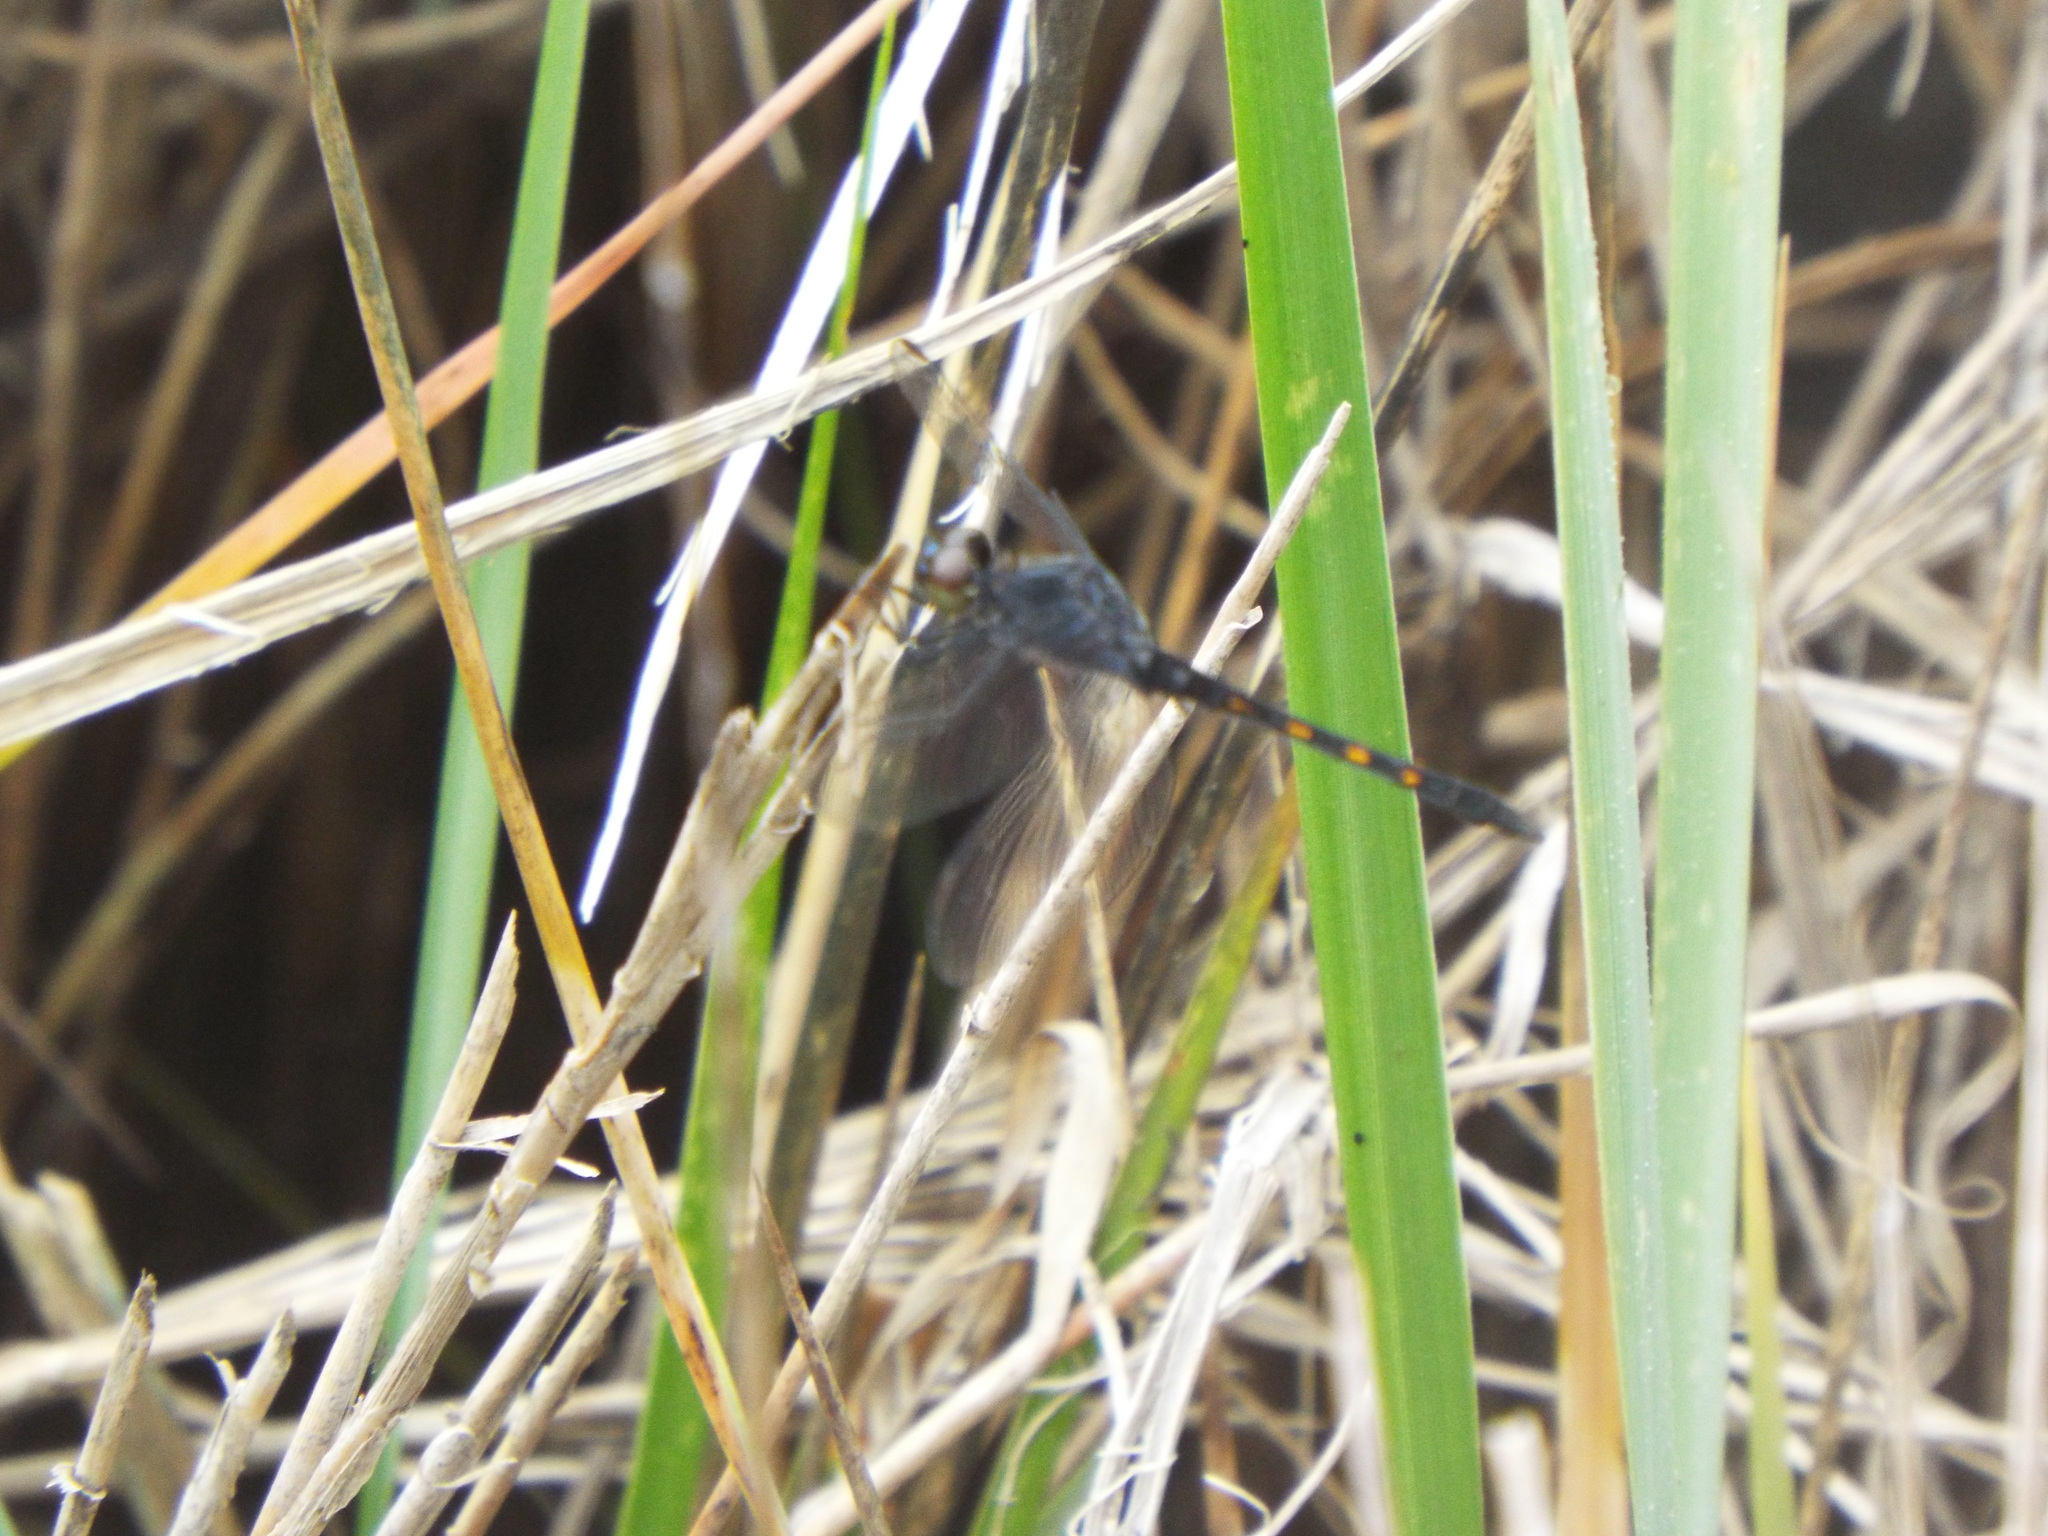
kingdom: Animalia
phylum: Arthropoda
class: Insecta
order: Odonata
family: Libellulidae
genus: Erythrodiplax
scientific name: Erythrodiplax berenice
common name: Seaside dragonlet
